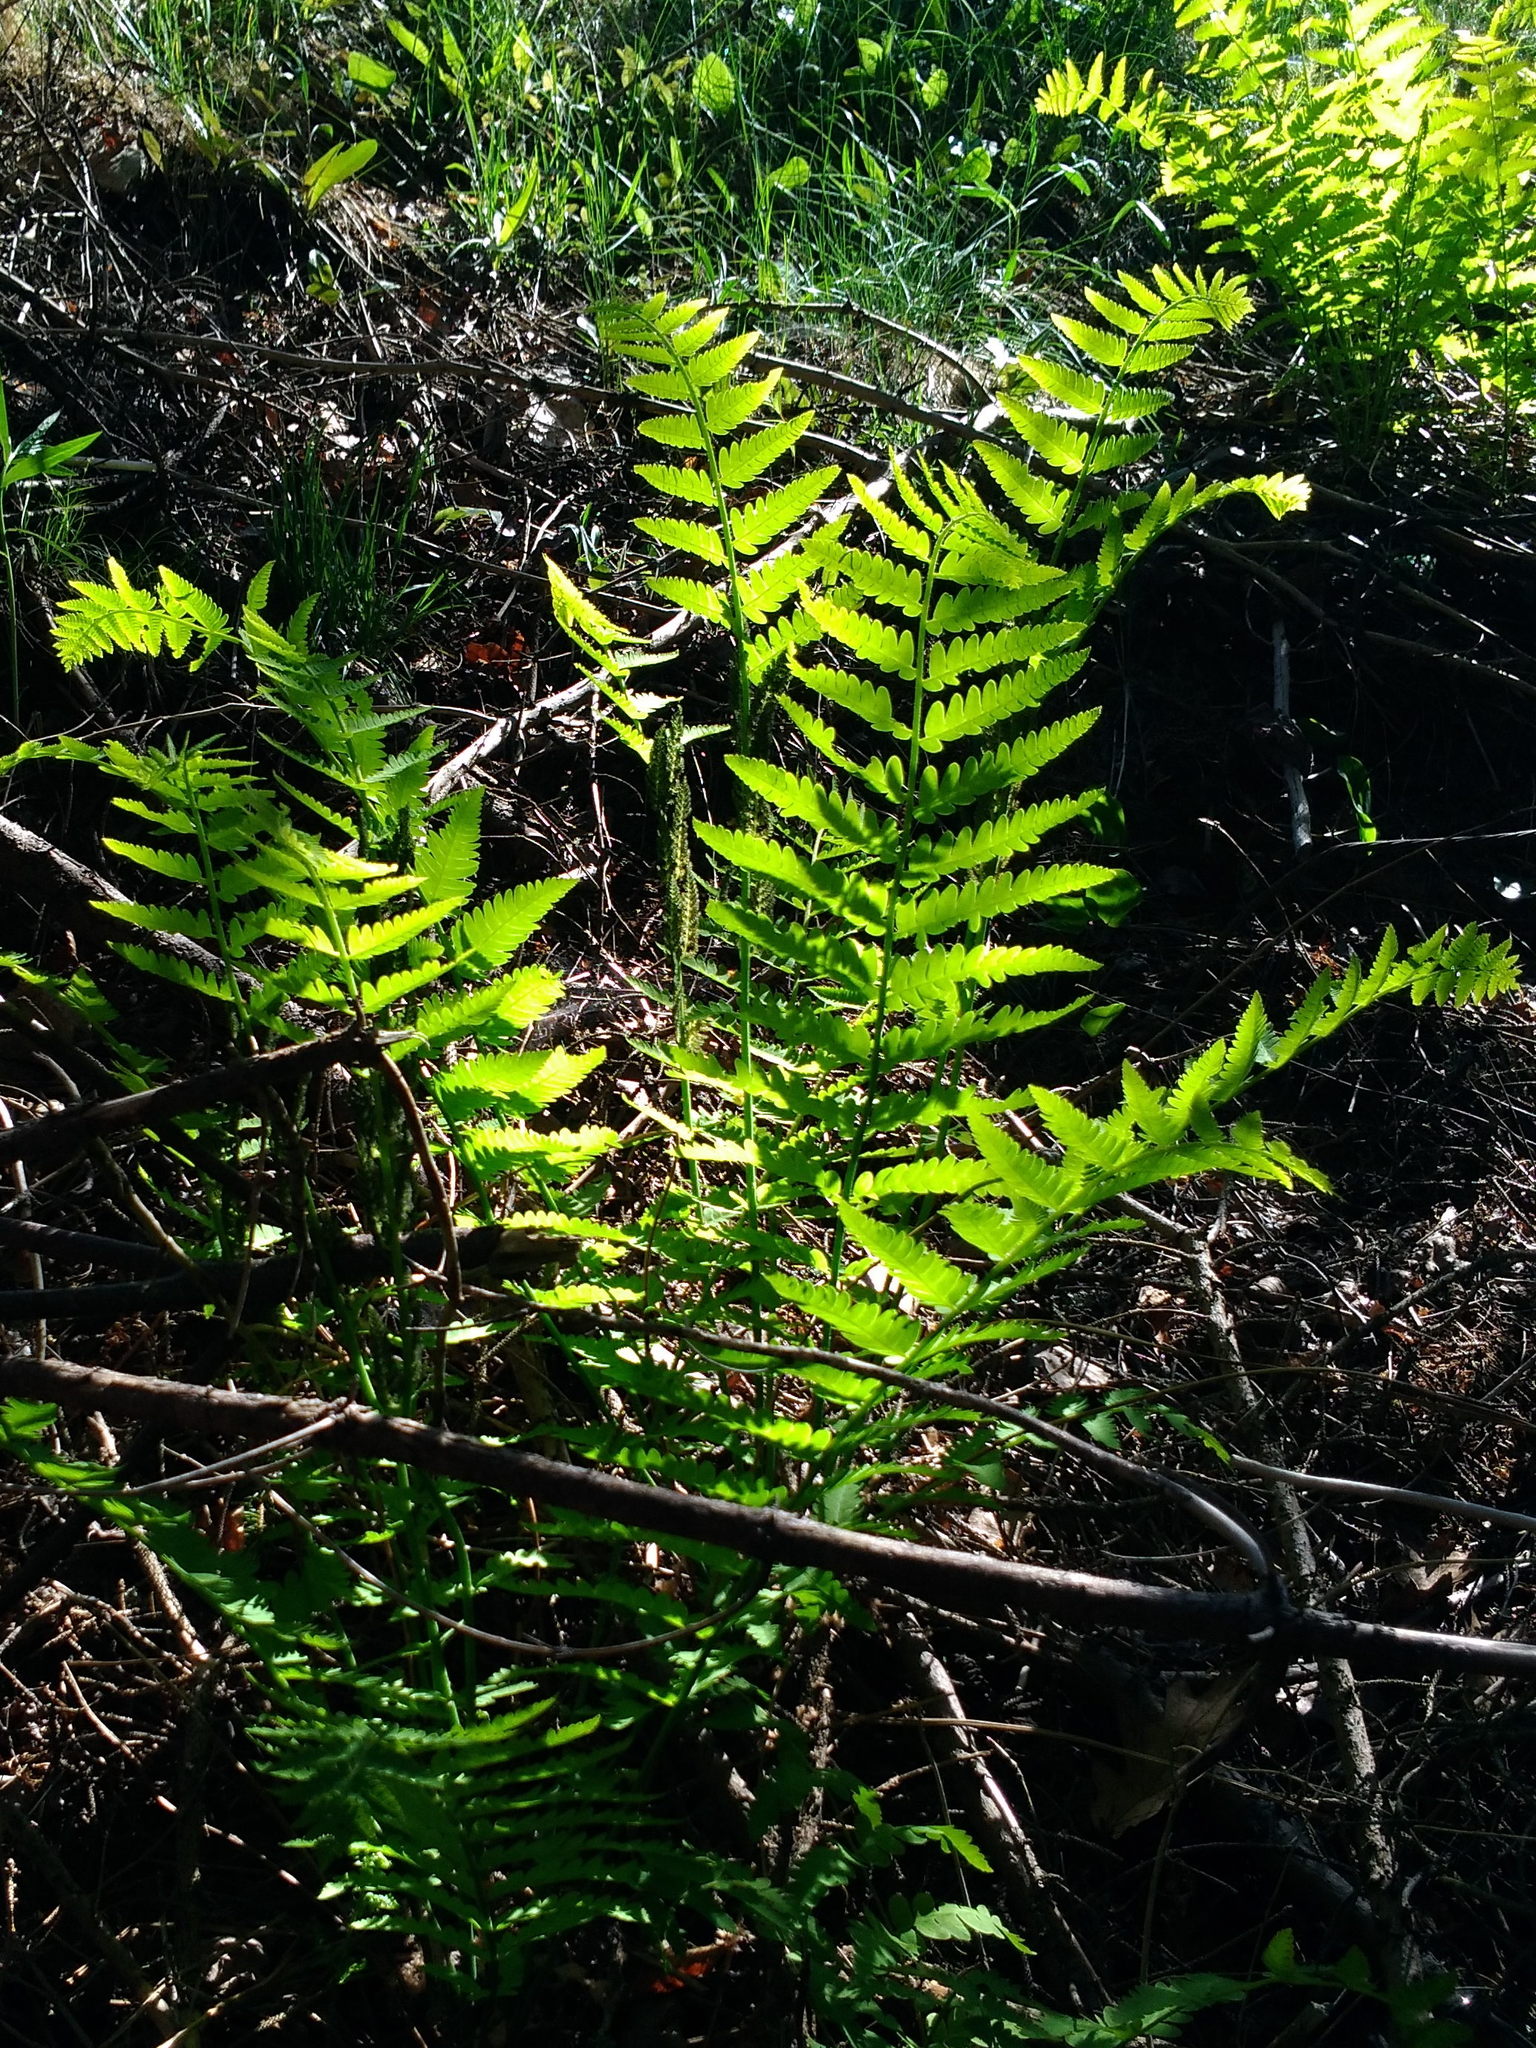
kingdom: Plantae
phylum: Tracheophyta
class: Polypodiopsida
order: Osmundales
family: Osmundaceae
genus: Claytosmunda
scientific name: Claytosmunda claytoniana
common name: Clayton's fern
